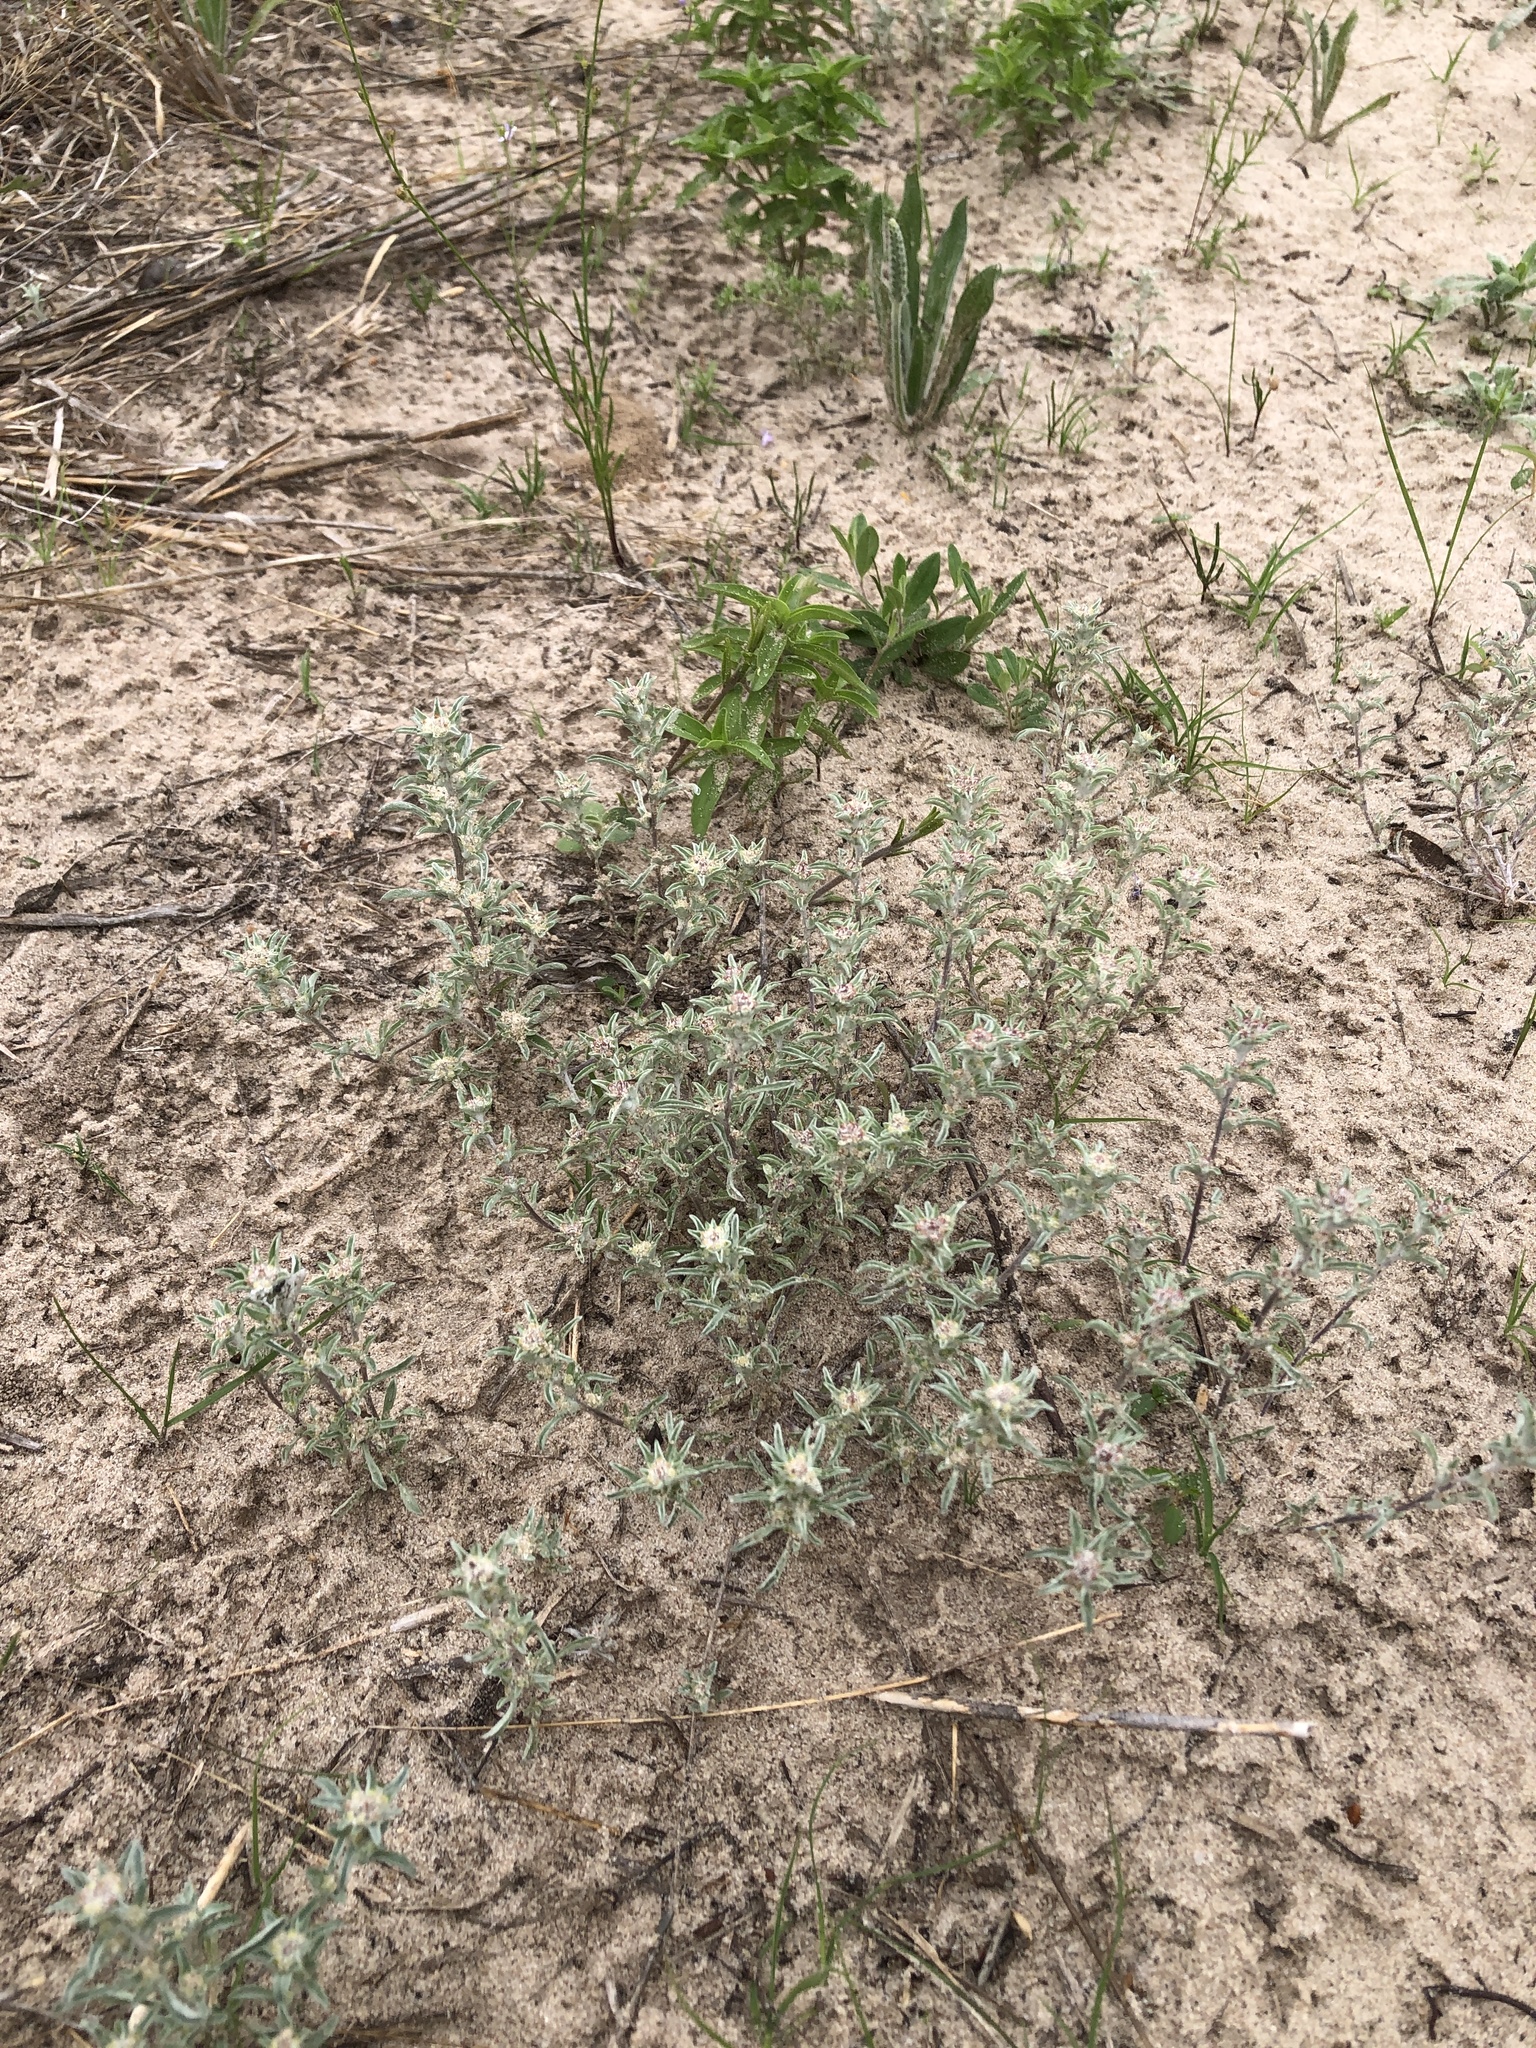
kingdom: Plantae
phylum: Tracheophyta
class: Magnoliopsida
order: Asterales
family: Asteraceae
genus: Diaperia
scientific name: Diaperia candida
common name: Silver rabbit-tobacco
